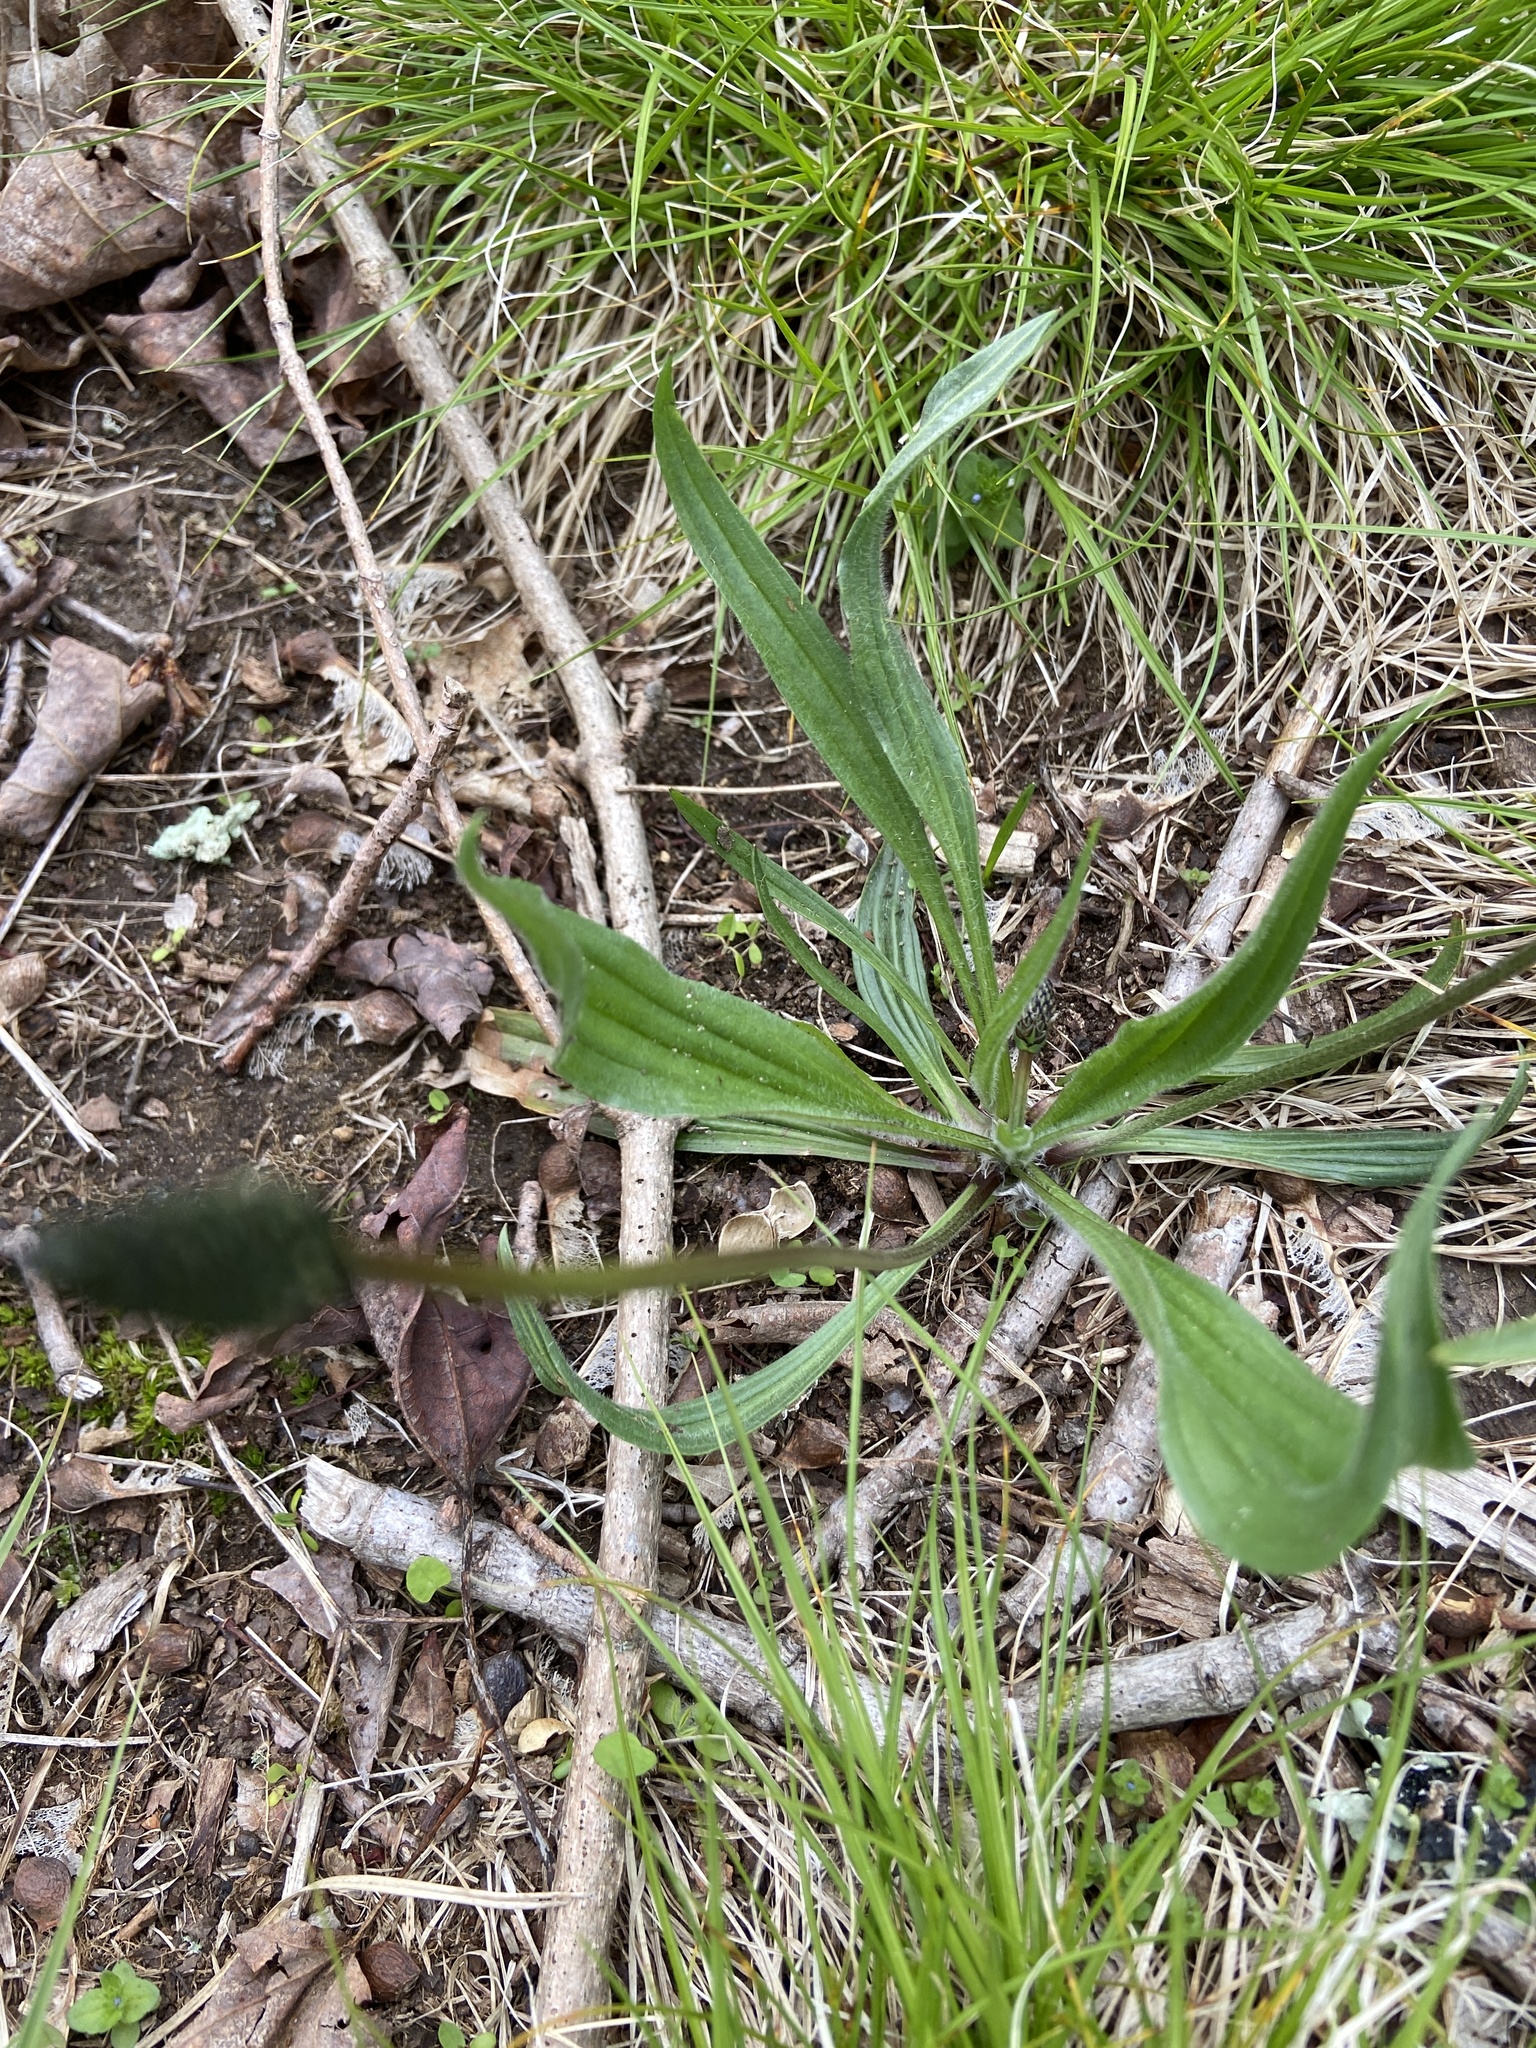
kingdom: Plantae
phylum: Tracheophyta
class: Magnoliopsida
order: Lamiales
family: Plantaginaceae
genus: Plantago
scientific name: Plantago lanceolata
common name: Ribwort plantain
